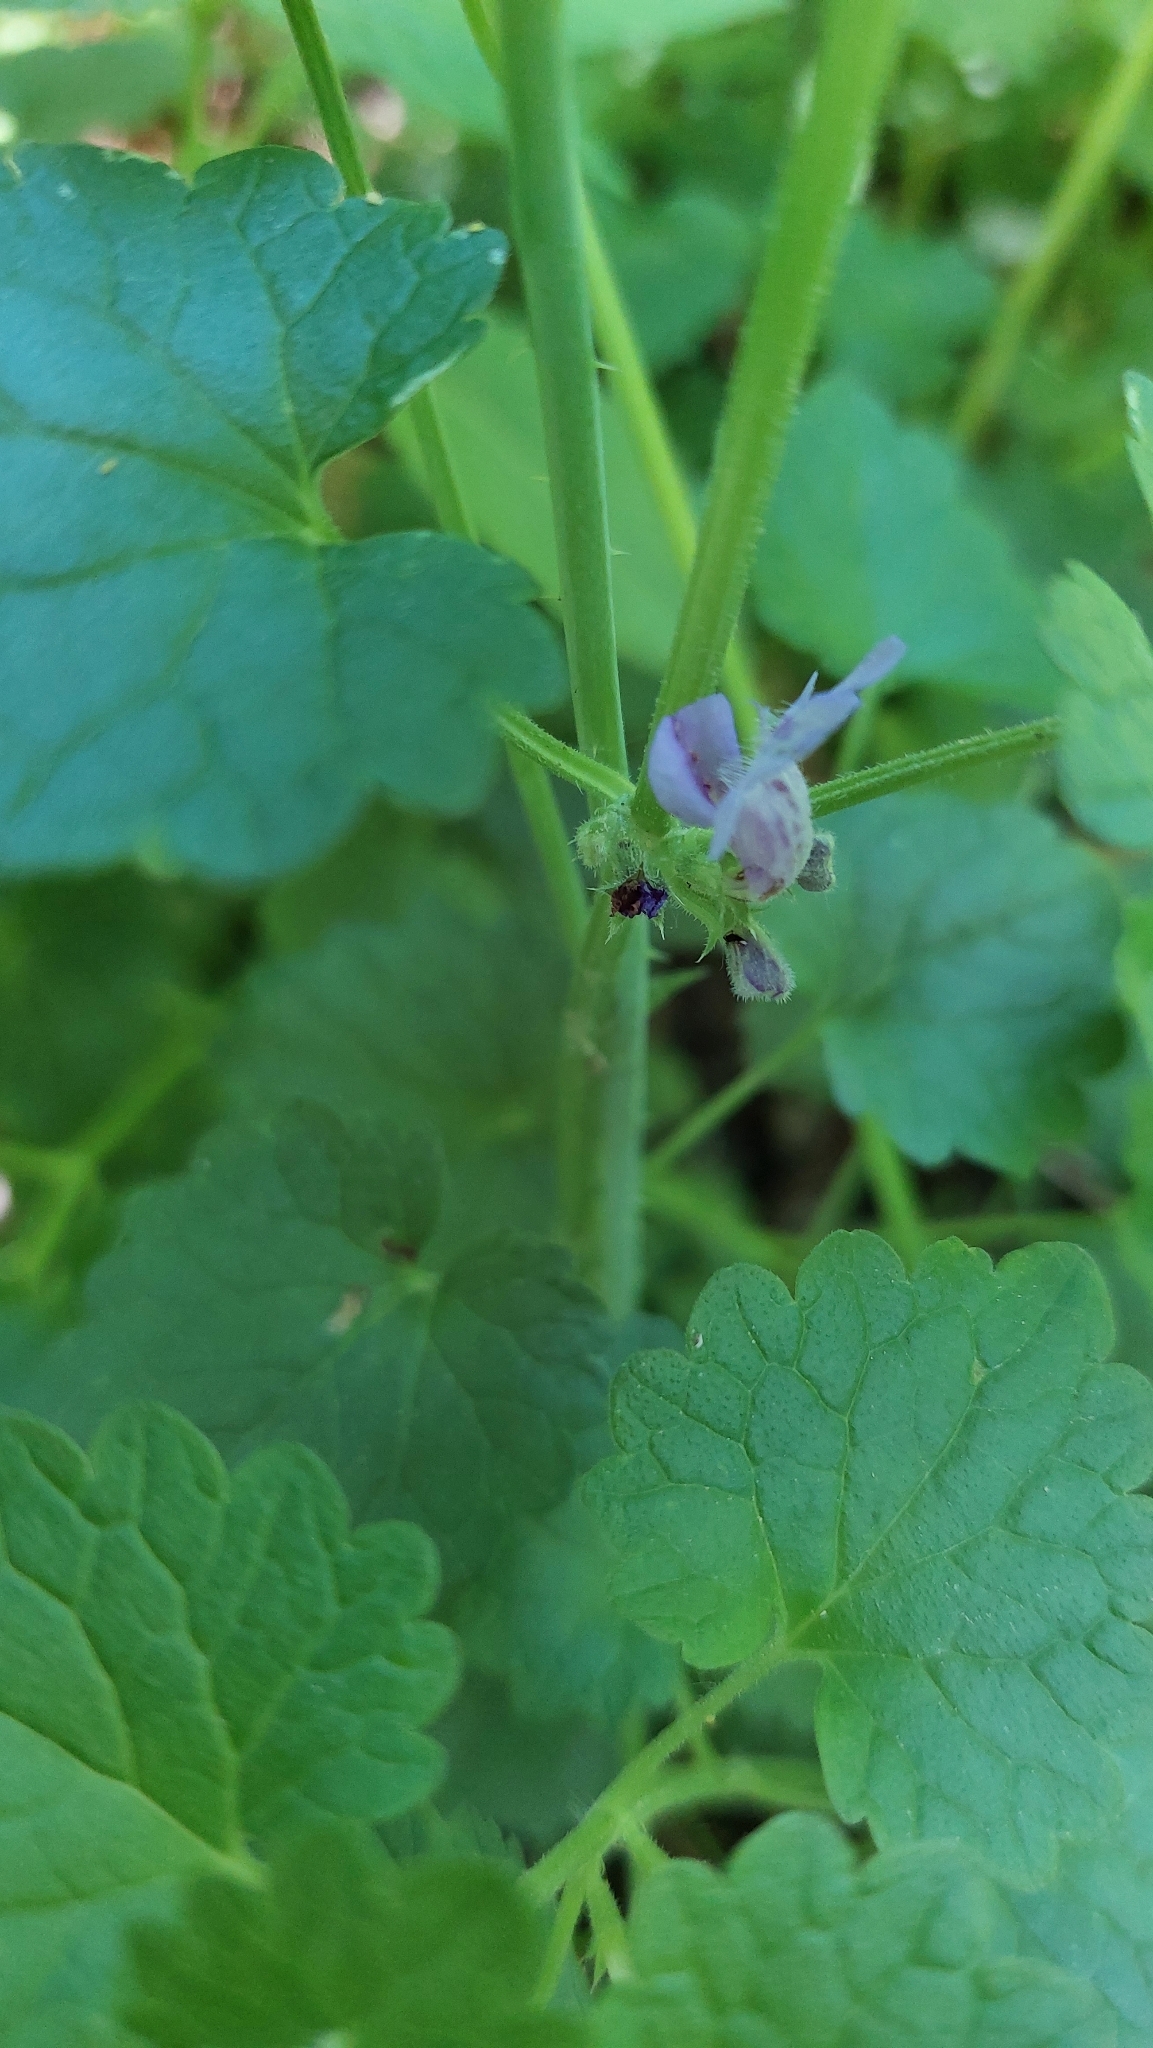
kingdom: Plantae
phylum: Tracheophyta
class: Magnoliopsida
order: Lamiales
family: Lamiaceae
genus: Glechoma
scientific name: Glechoma hederacea
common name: Ground ivy
